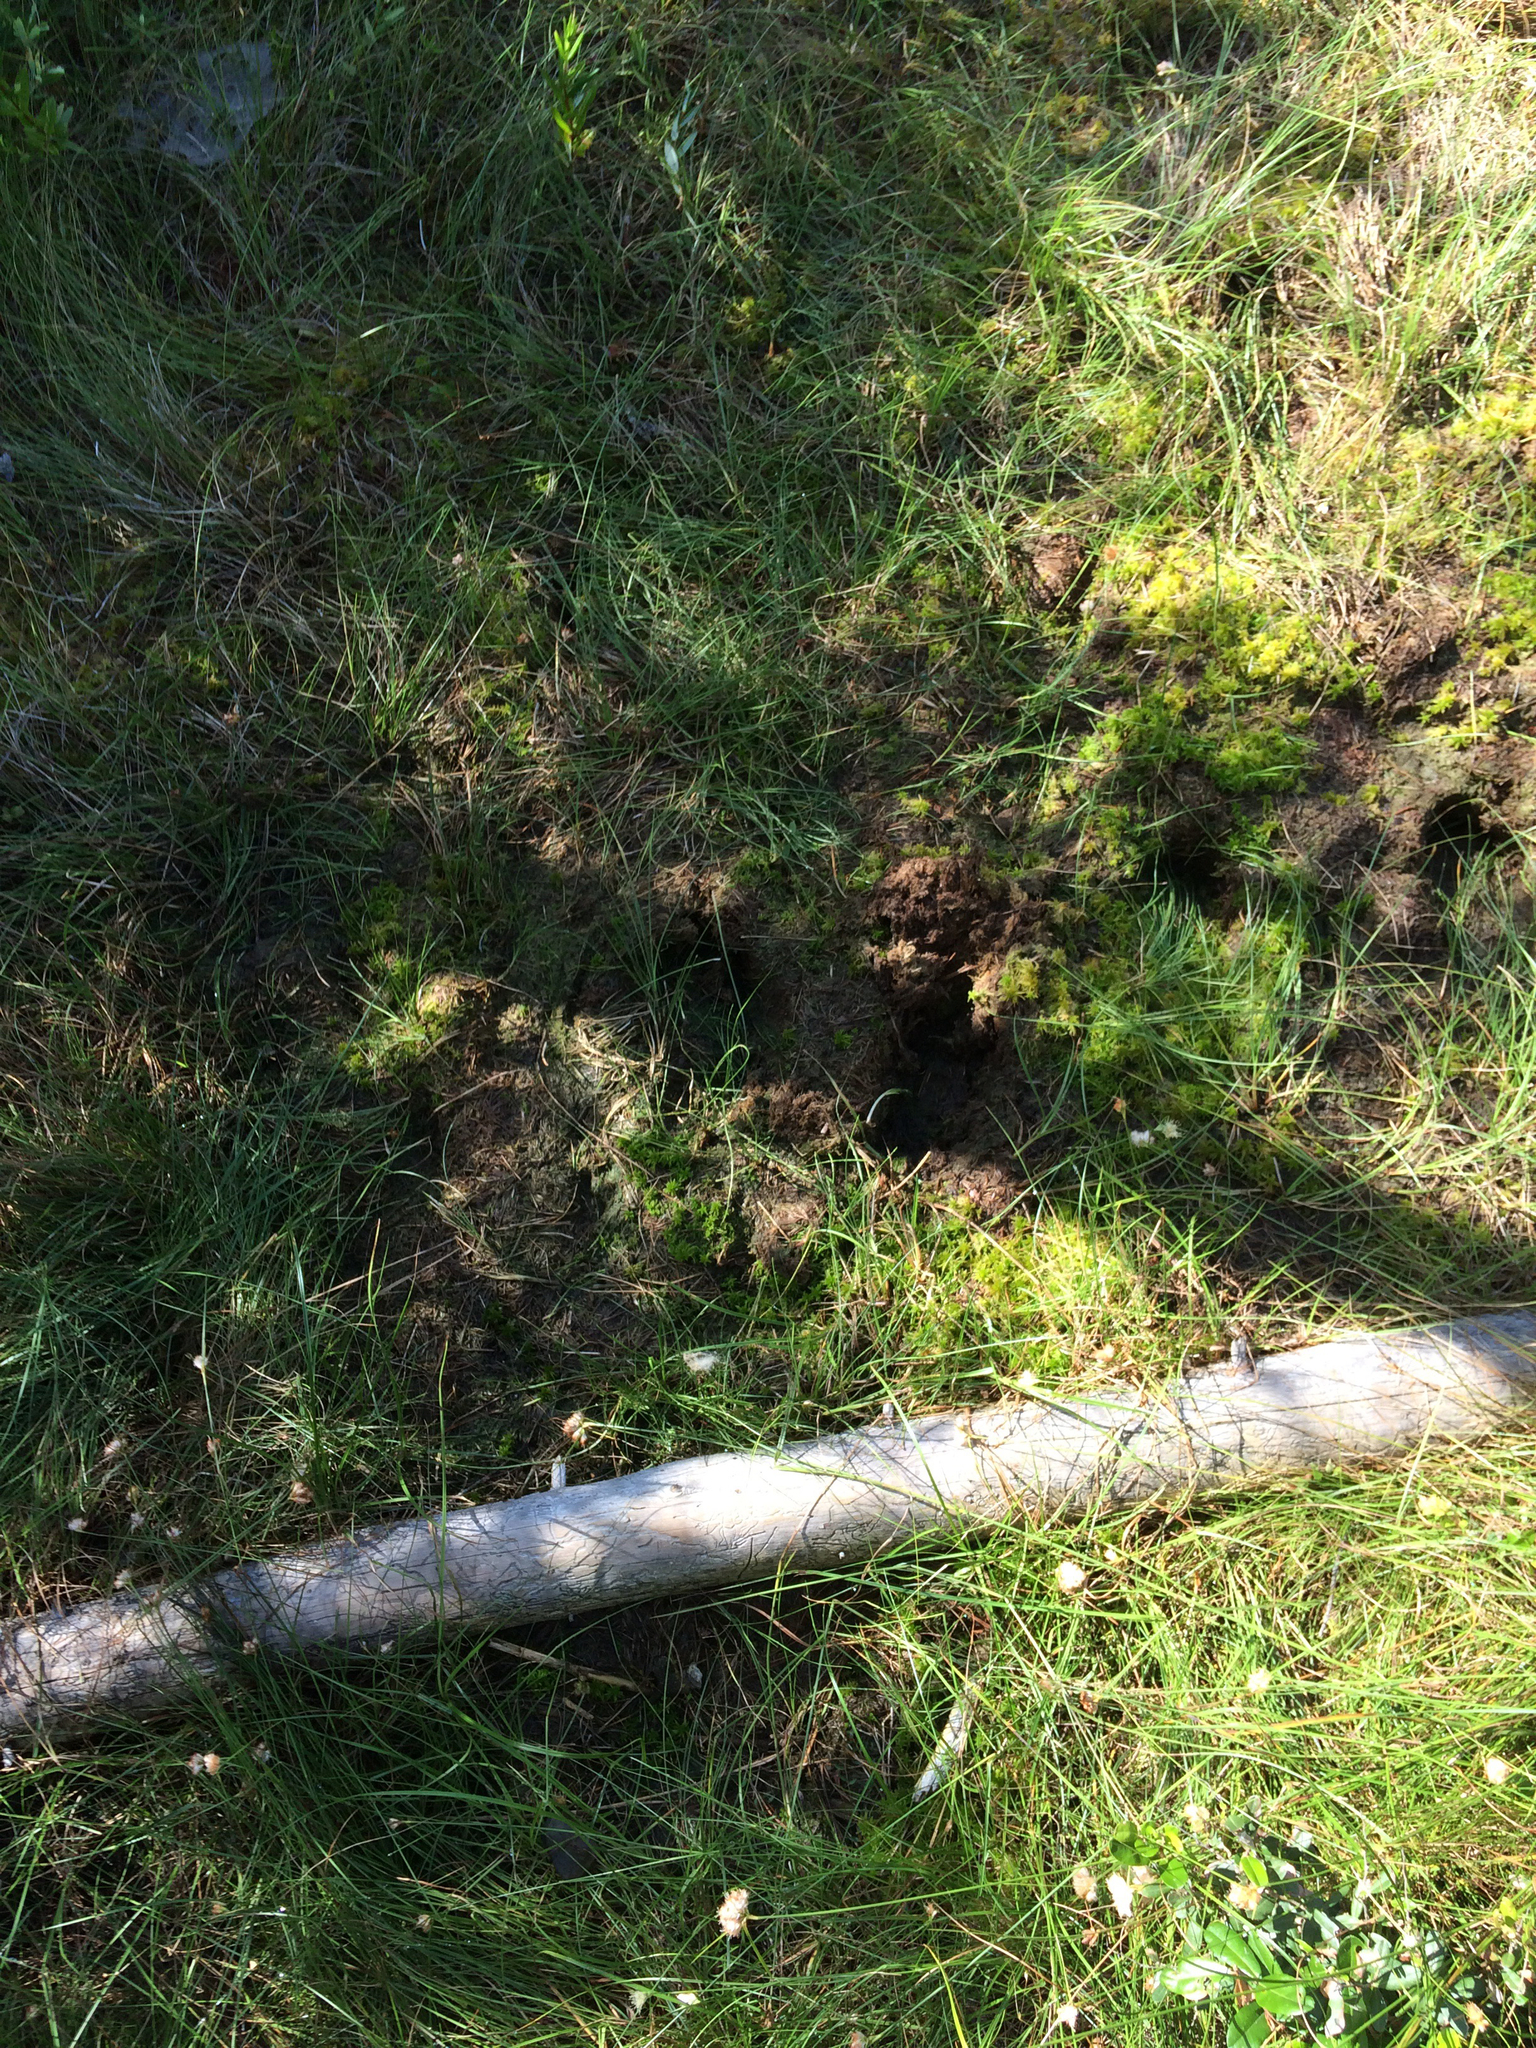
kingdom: Animalia
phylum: Chordata
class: Mammalia
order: Artiodactyla
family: Cervidae
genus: Alces
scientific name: Alces alces
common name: Moose
